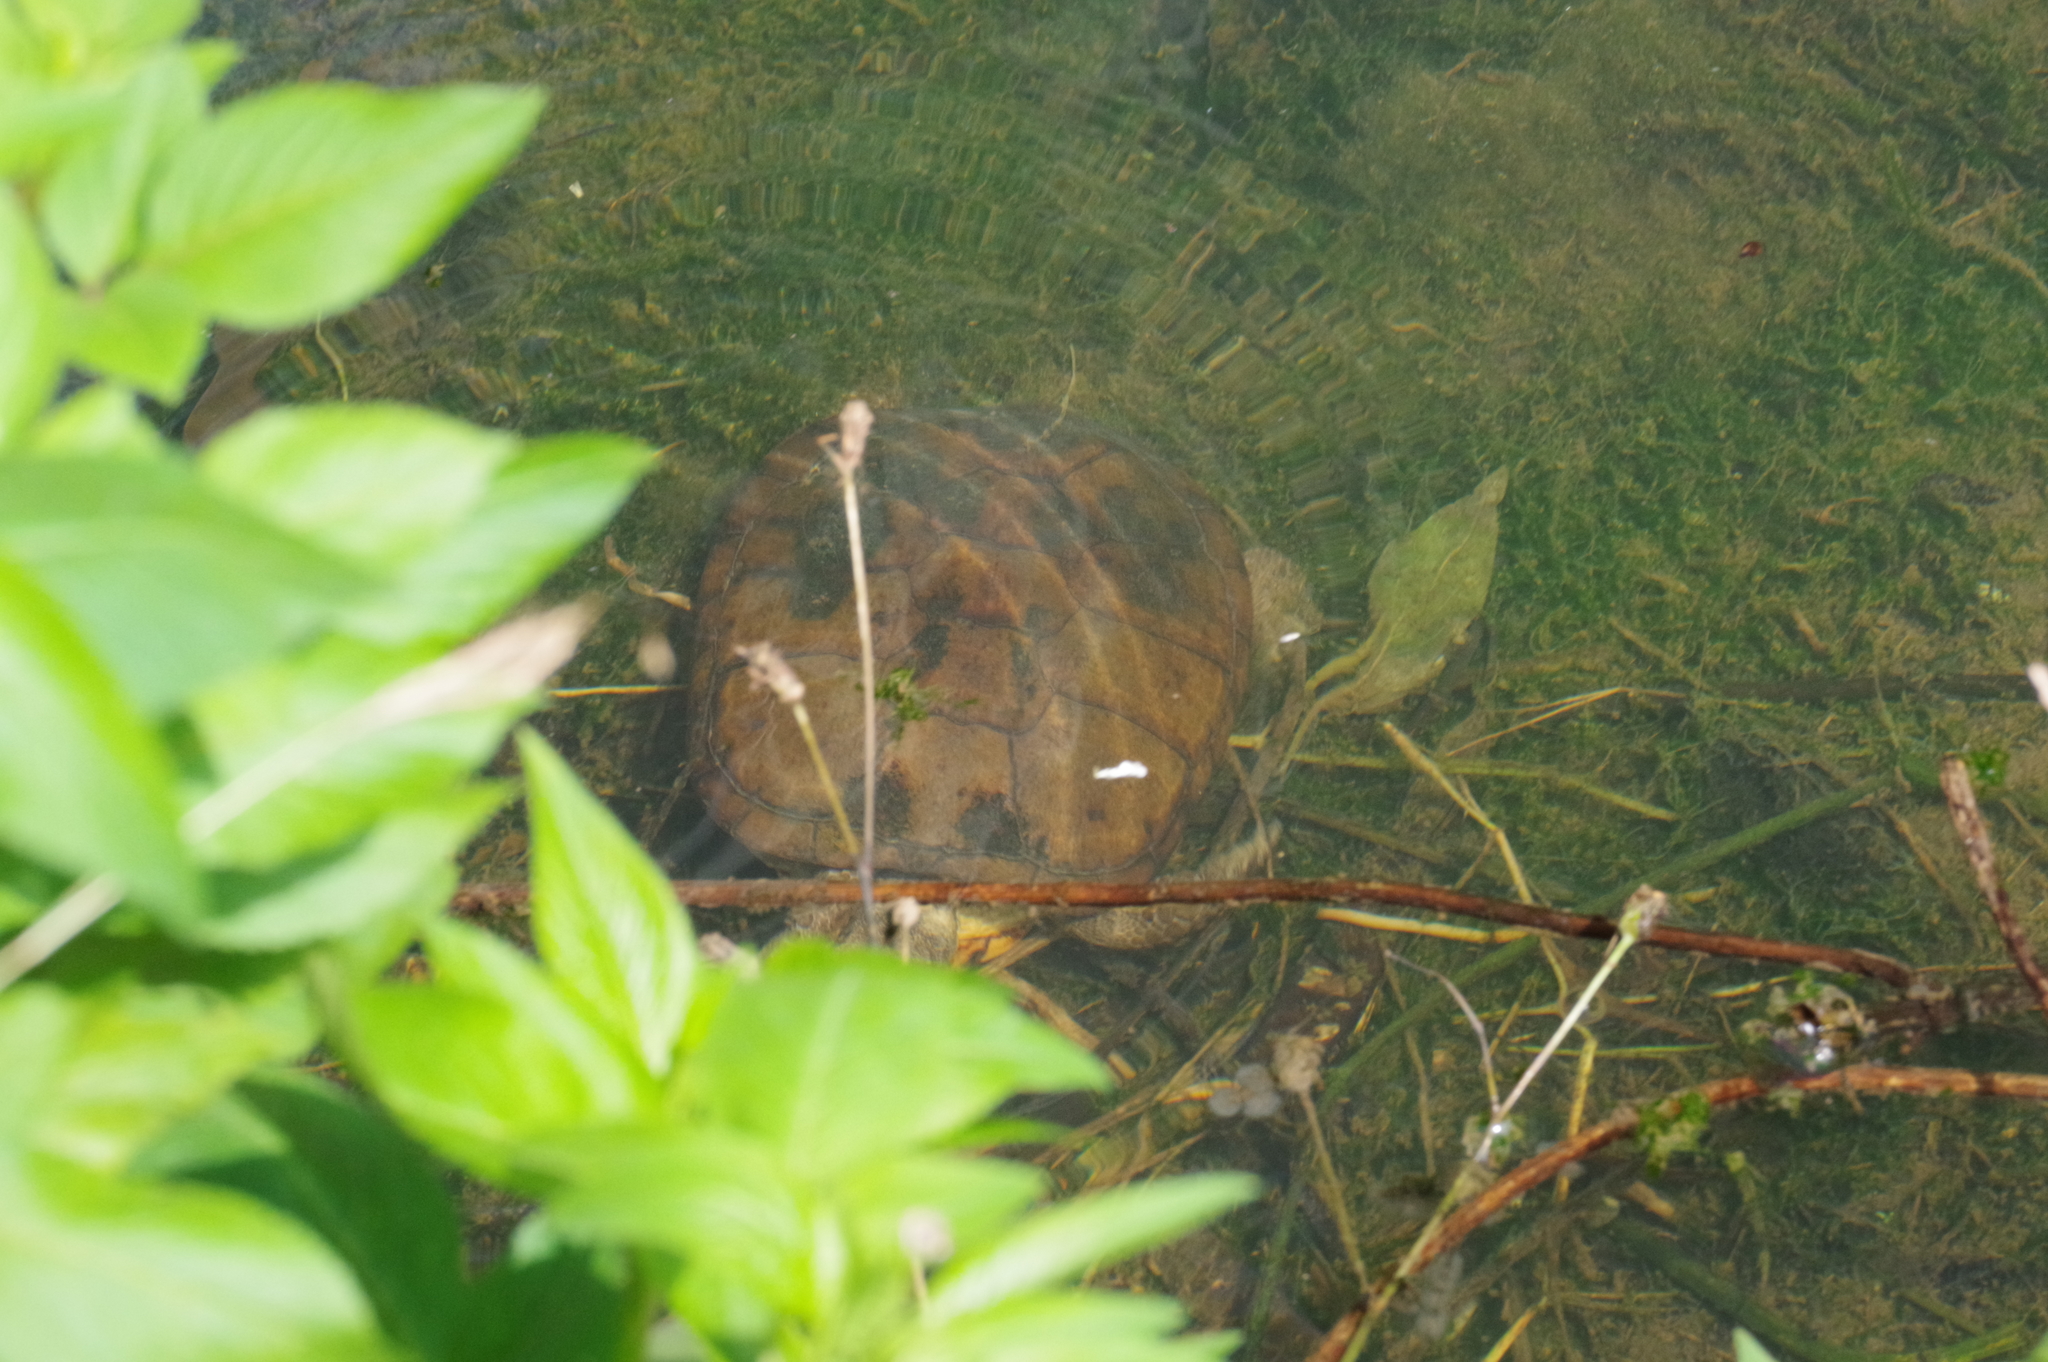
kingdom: Animalia
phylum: Chordata
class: Testudines
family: Geoemydidae
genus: Mauremys
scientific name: Mauremys mutica
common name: Yellow pond turtle
